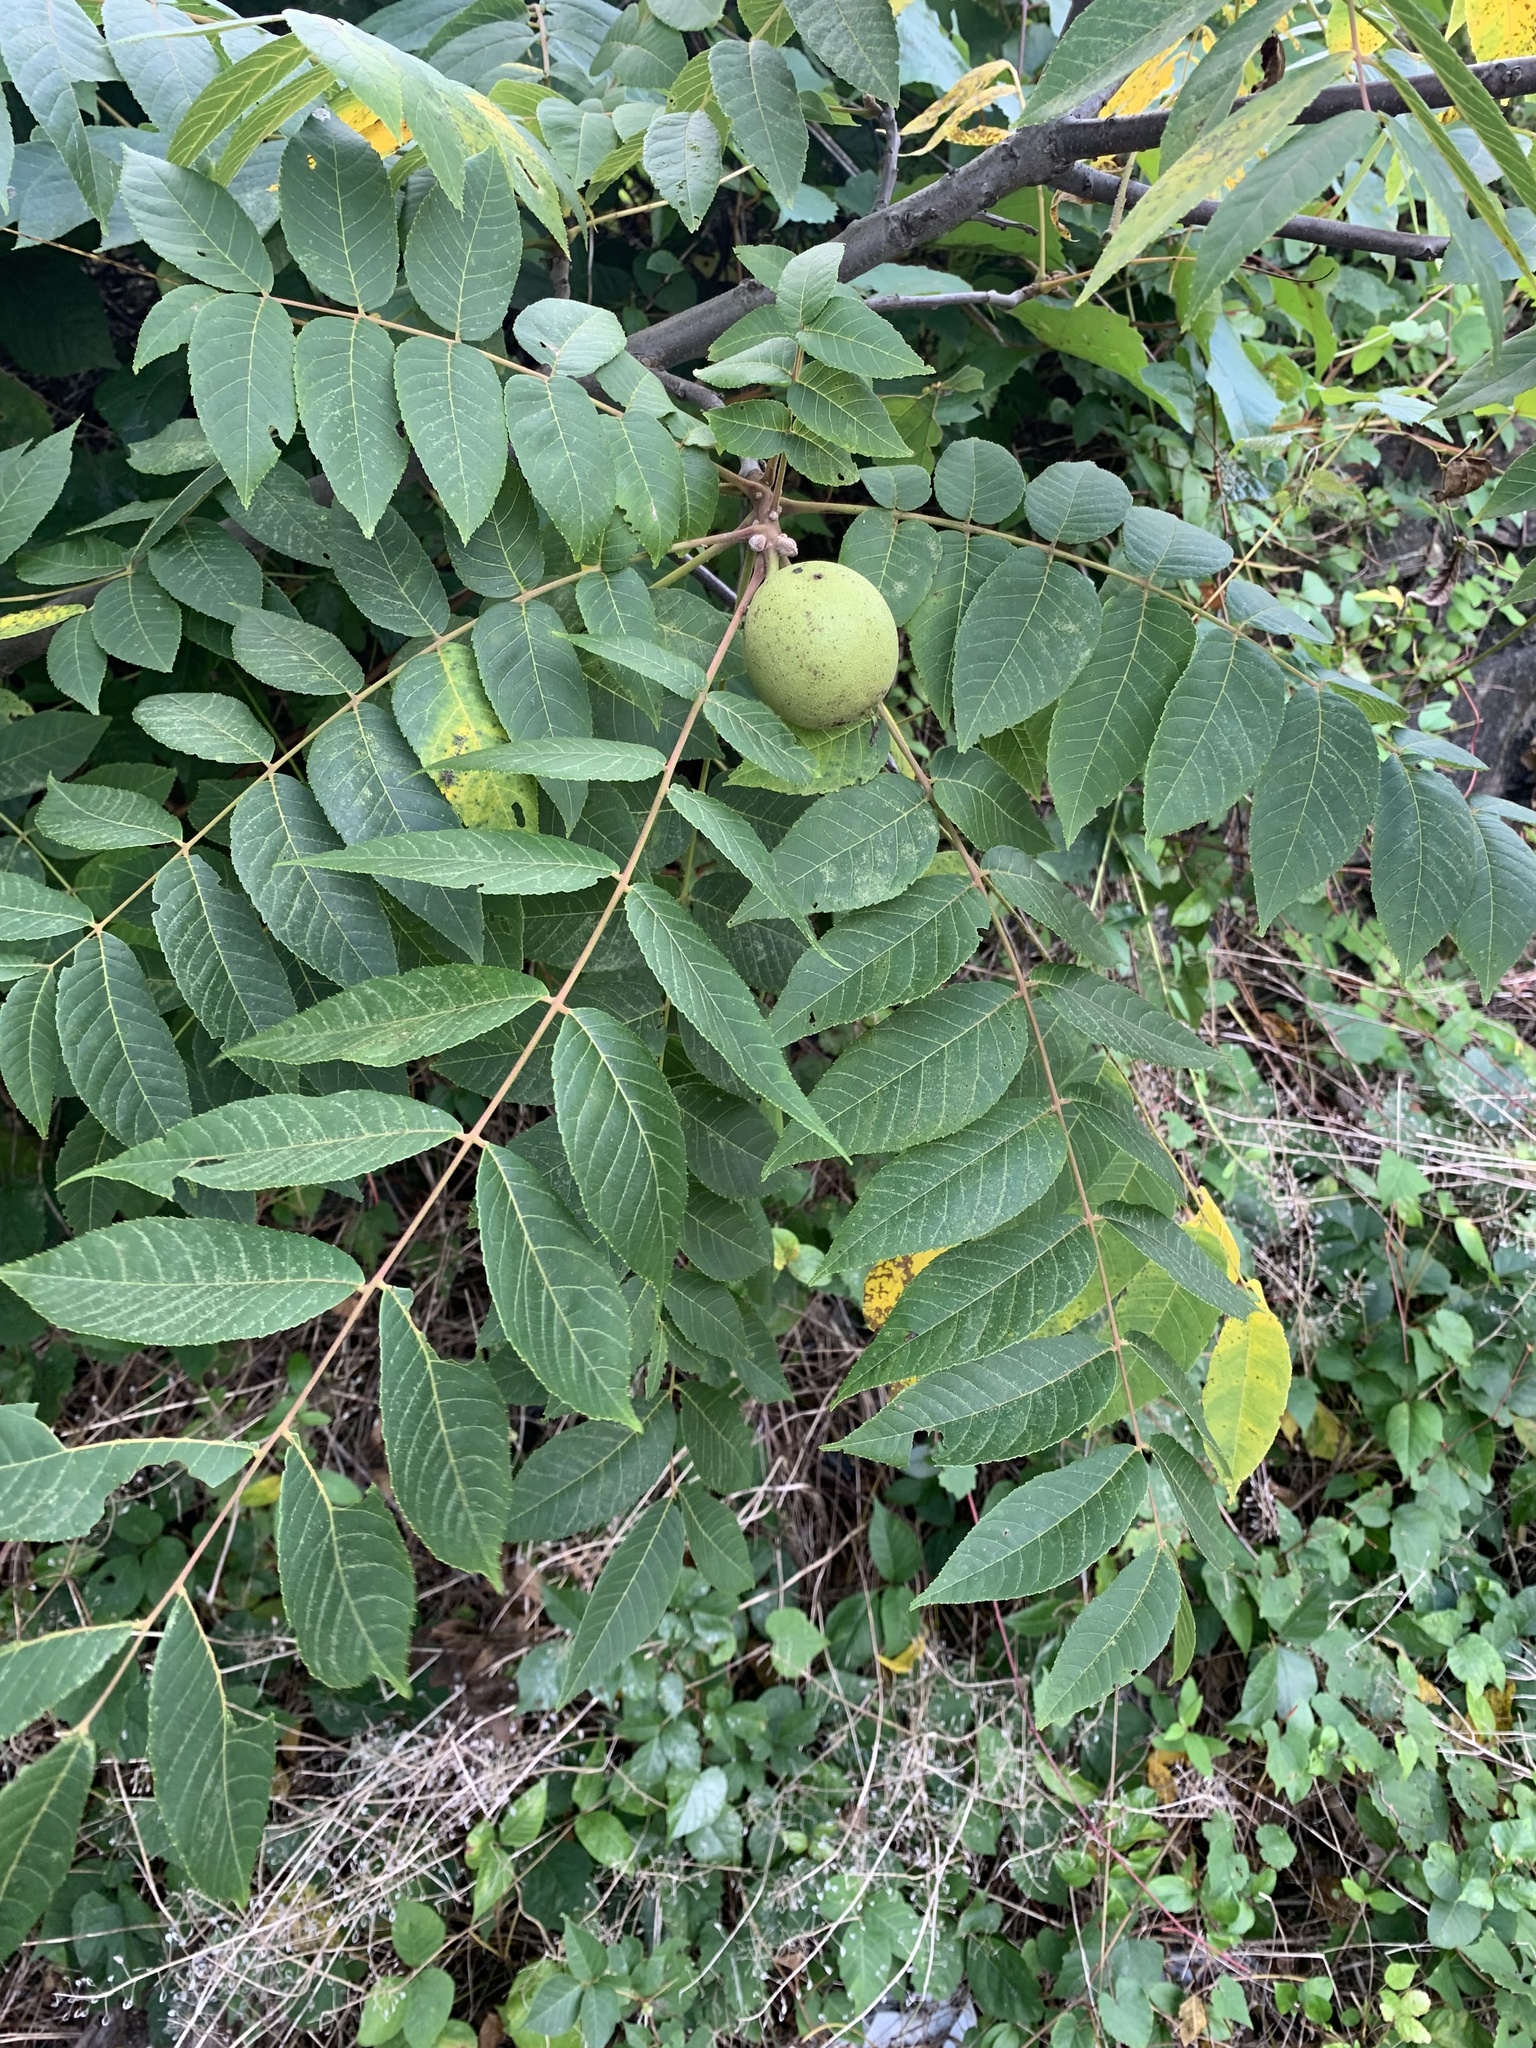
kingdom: Plantae
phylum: Tracheophyta
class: Magnoliopsida
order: Fagales
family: Juglandaceae
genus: Juglans
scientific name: Juglans nigra
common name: Black walnut
